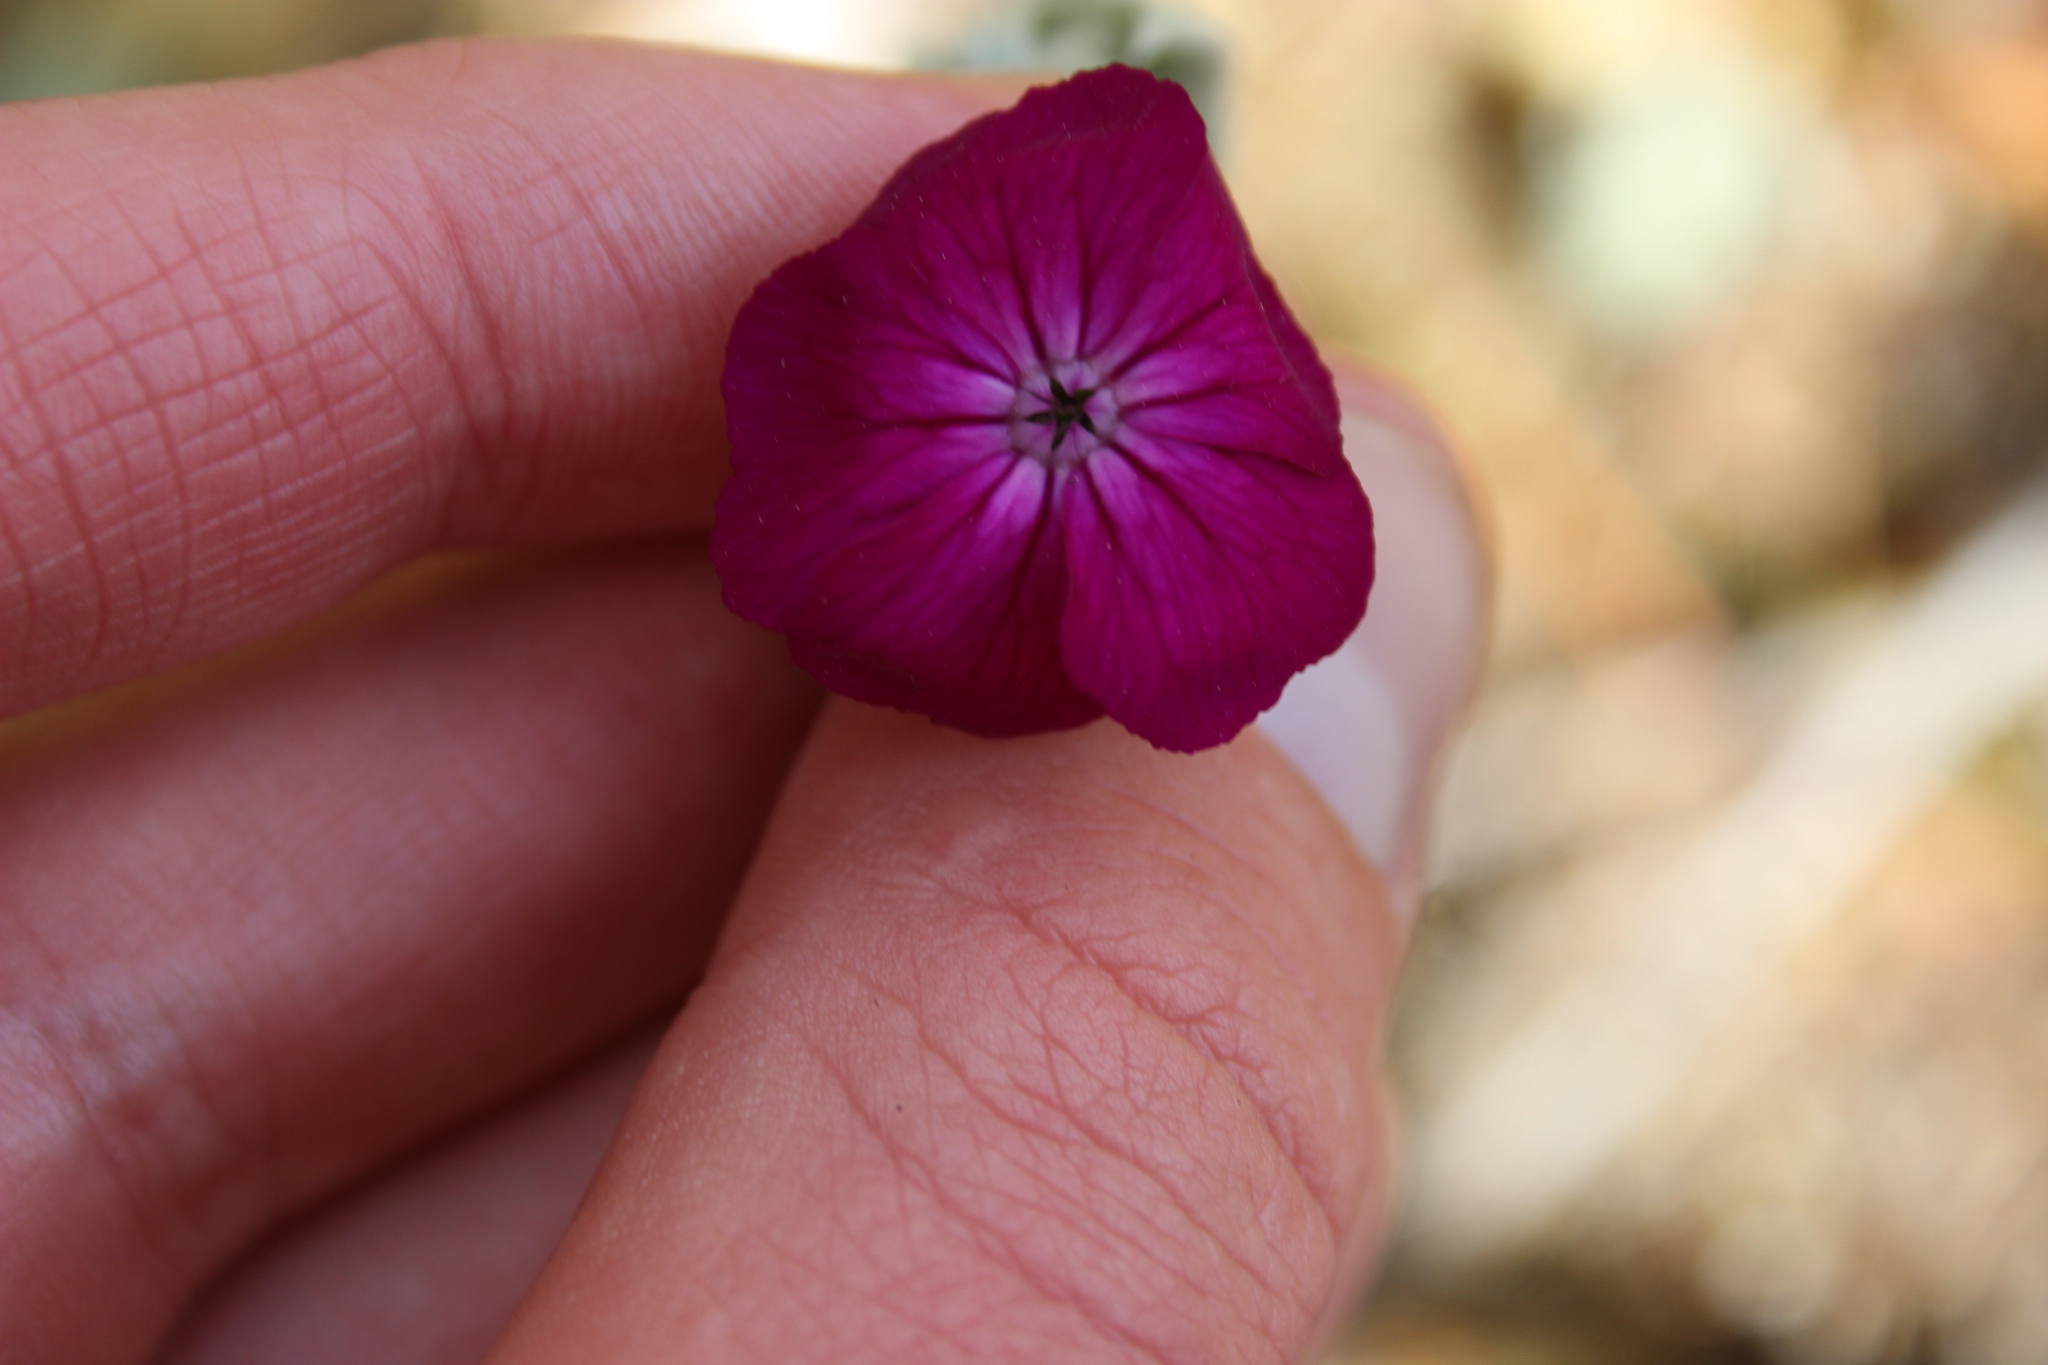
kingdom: Plantae
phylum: Tracheophyta
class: Magnoliopsida
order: Caryophyllales
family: Caryophyllaceae
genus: Silene
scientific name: Silene coronaria
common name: Rose campion
